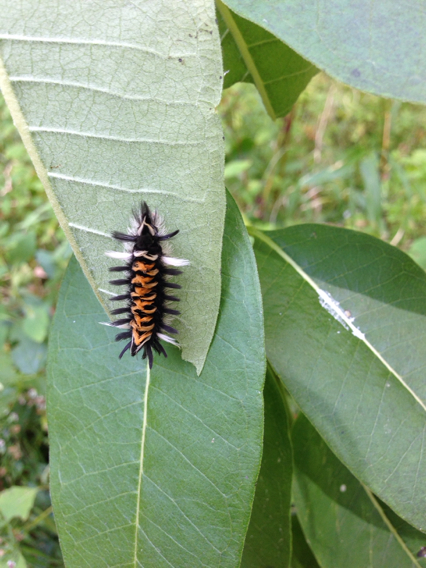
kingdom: Animalia
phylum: Arthropoda
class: Insecta
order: Lepidoptera
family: Erebidae
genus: Euchaetes
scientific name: Euchaetes egle
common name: Milkweed tussock moth
